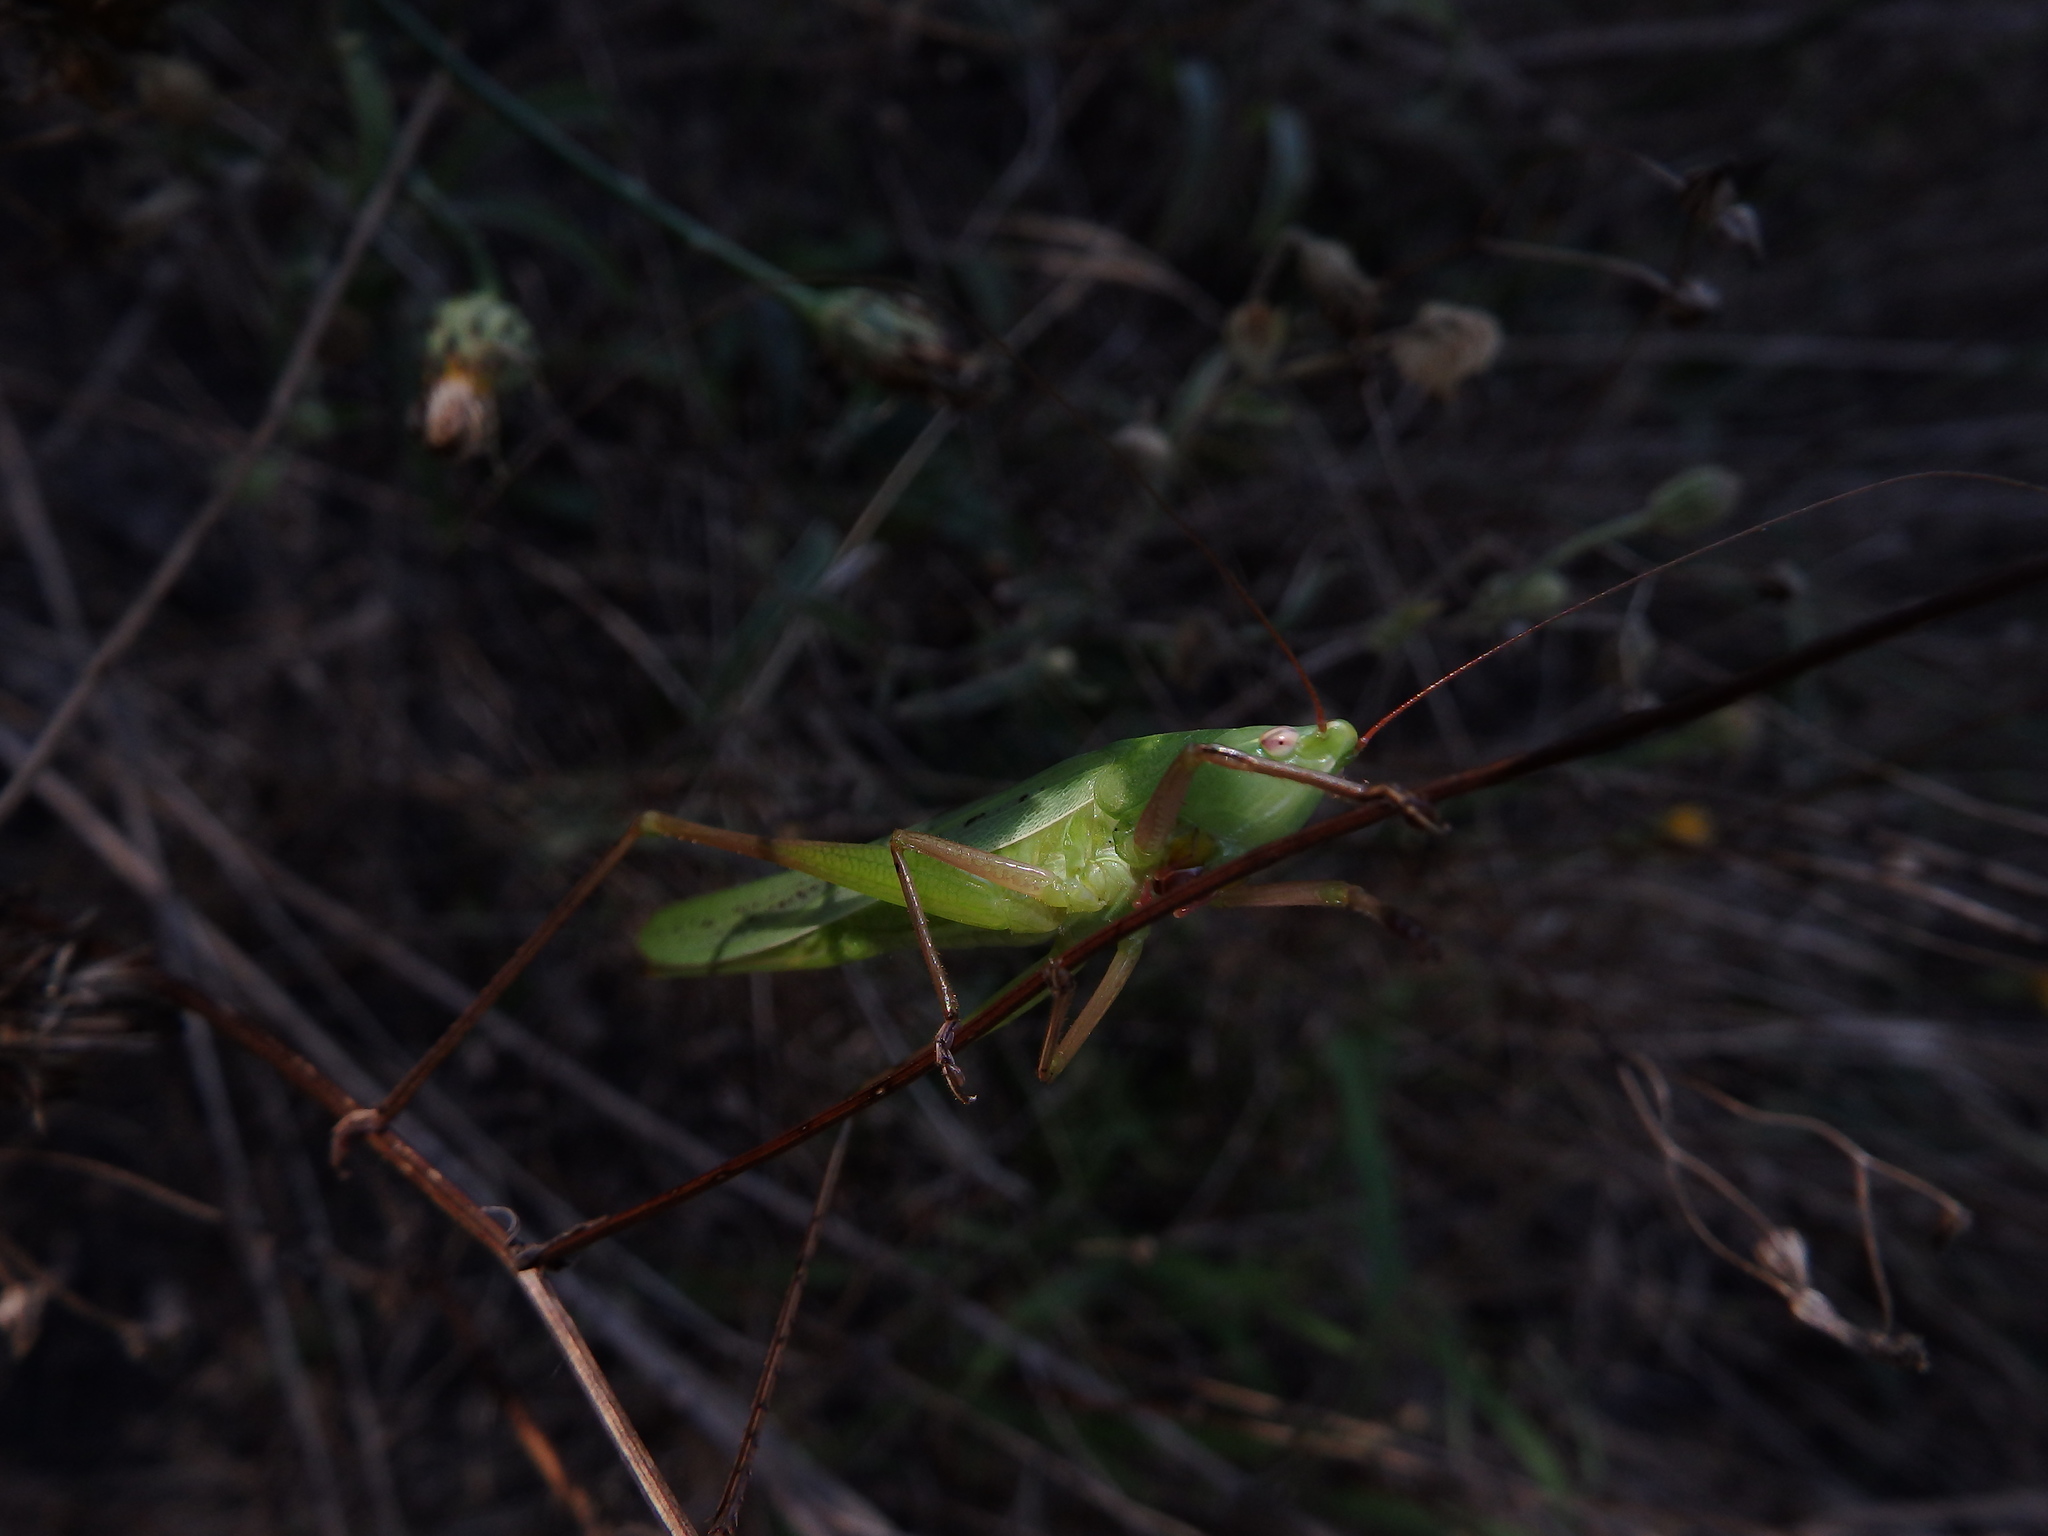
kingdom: Animalia
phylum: Arthropoda
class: Insecta
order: Orthoptera
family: Tettigoniidae
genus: Ruspolia
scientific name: Ruspolia nitidula
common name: Large conehead
